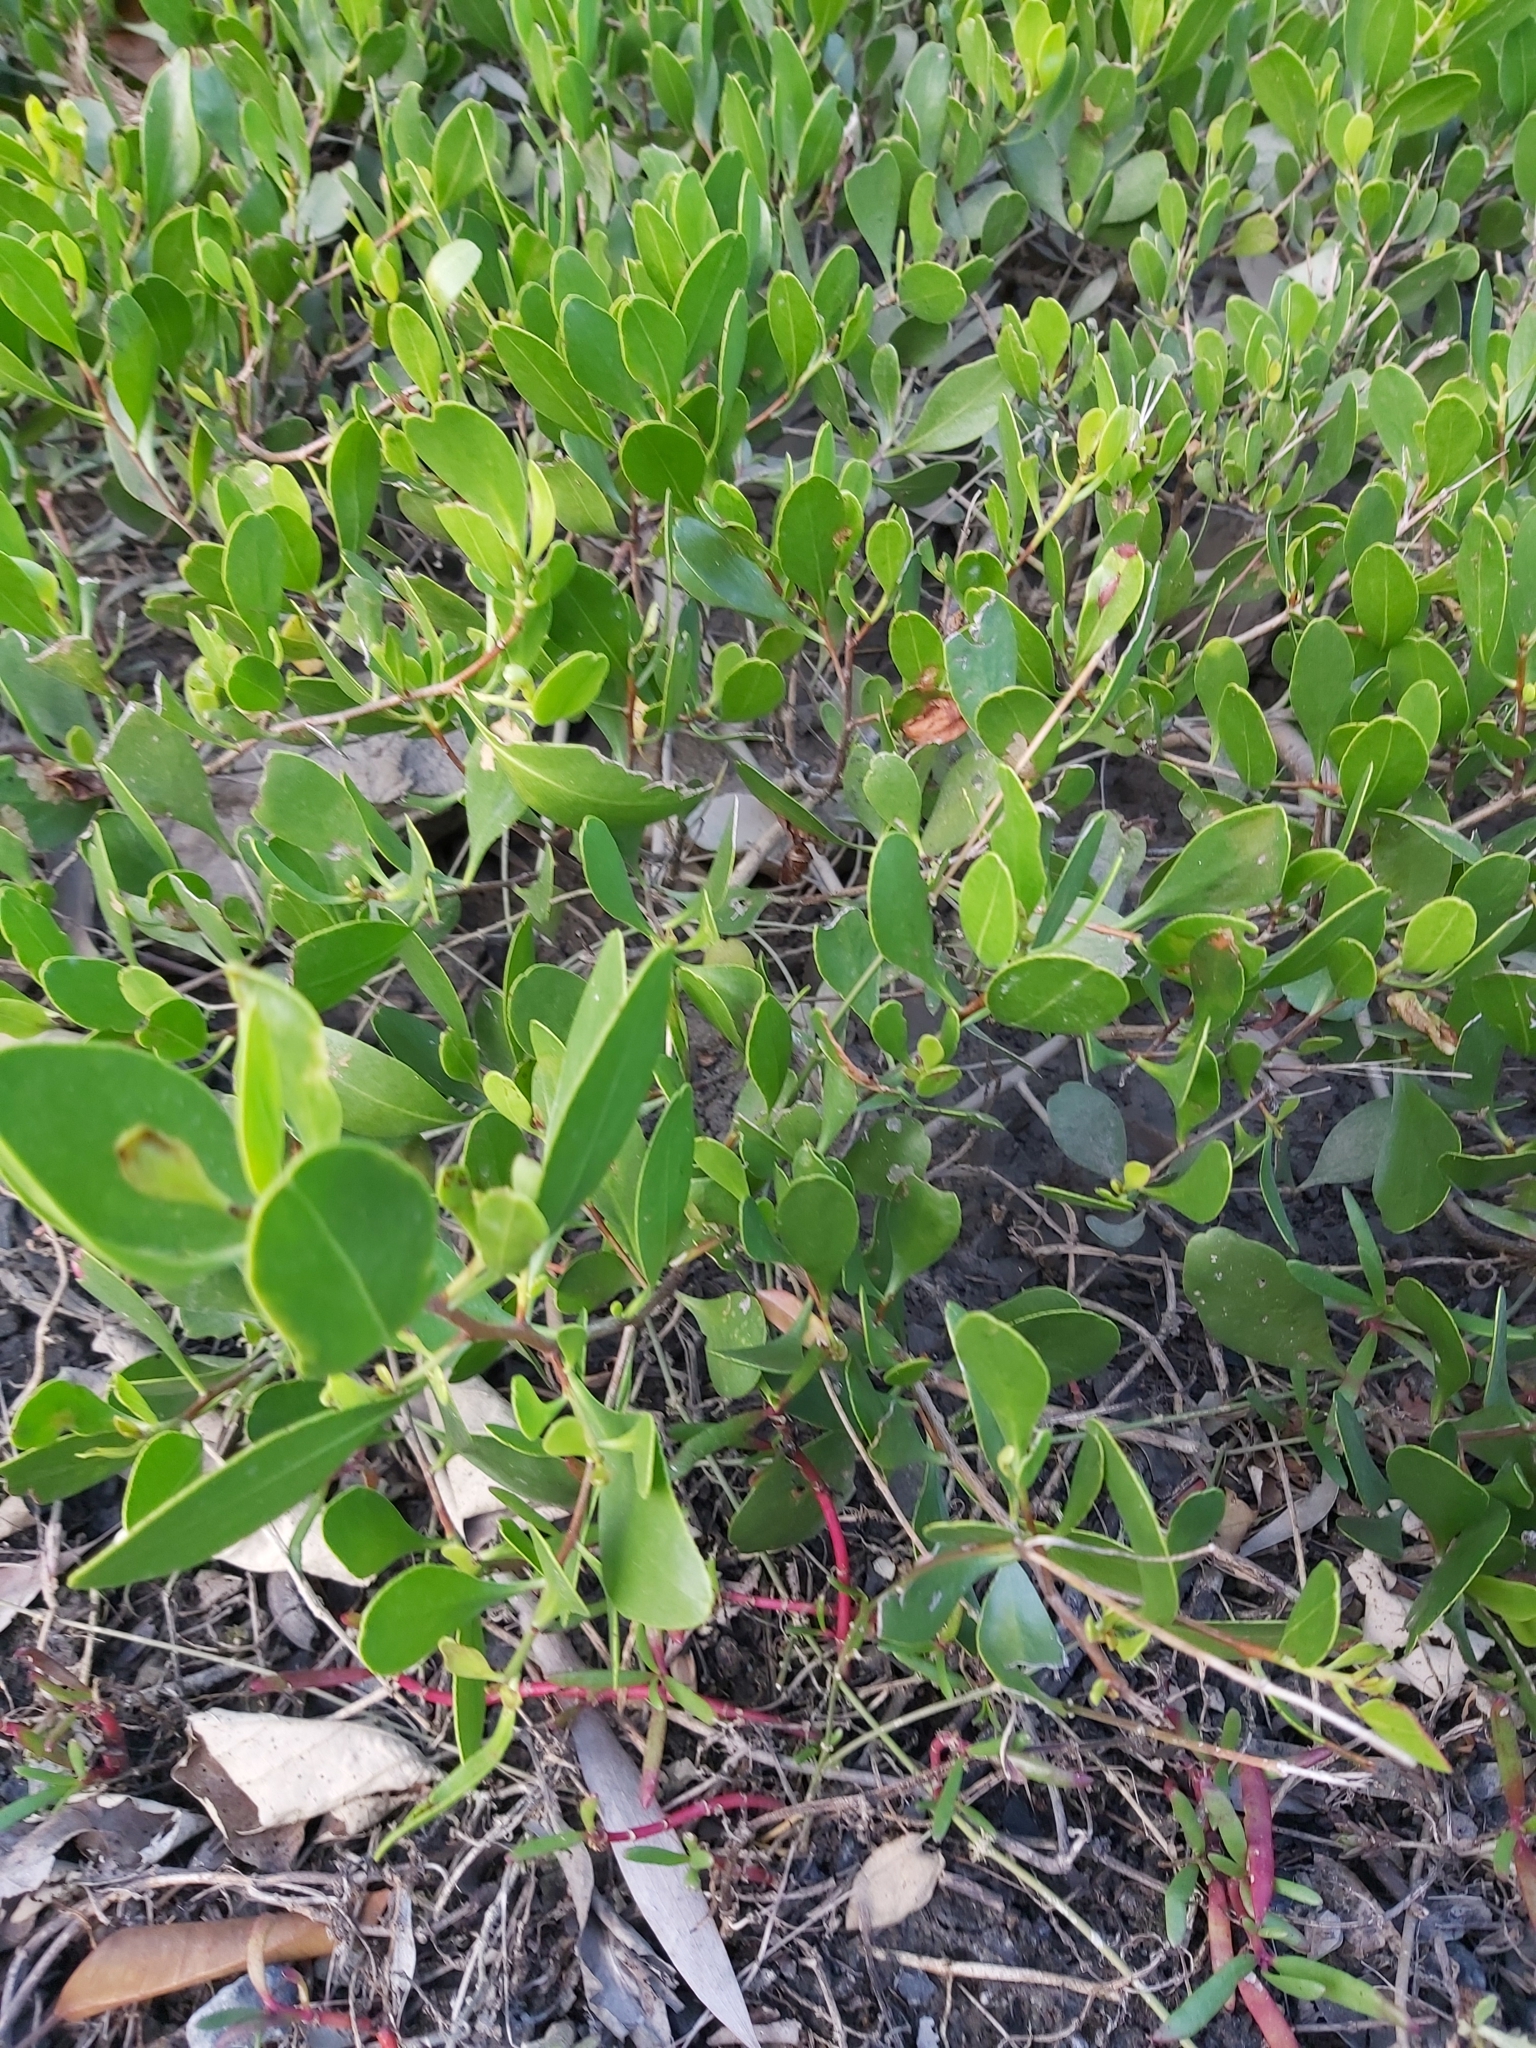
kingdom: Plantae
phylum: Tracheophyta
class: Magnoliopsida
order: Myrtales
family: Combretaceae
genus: Lumnitzera
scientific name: Lumnitzera racemosa
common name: White-flowered black mangrove
